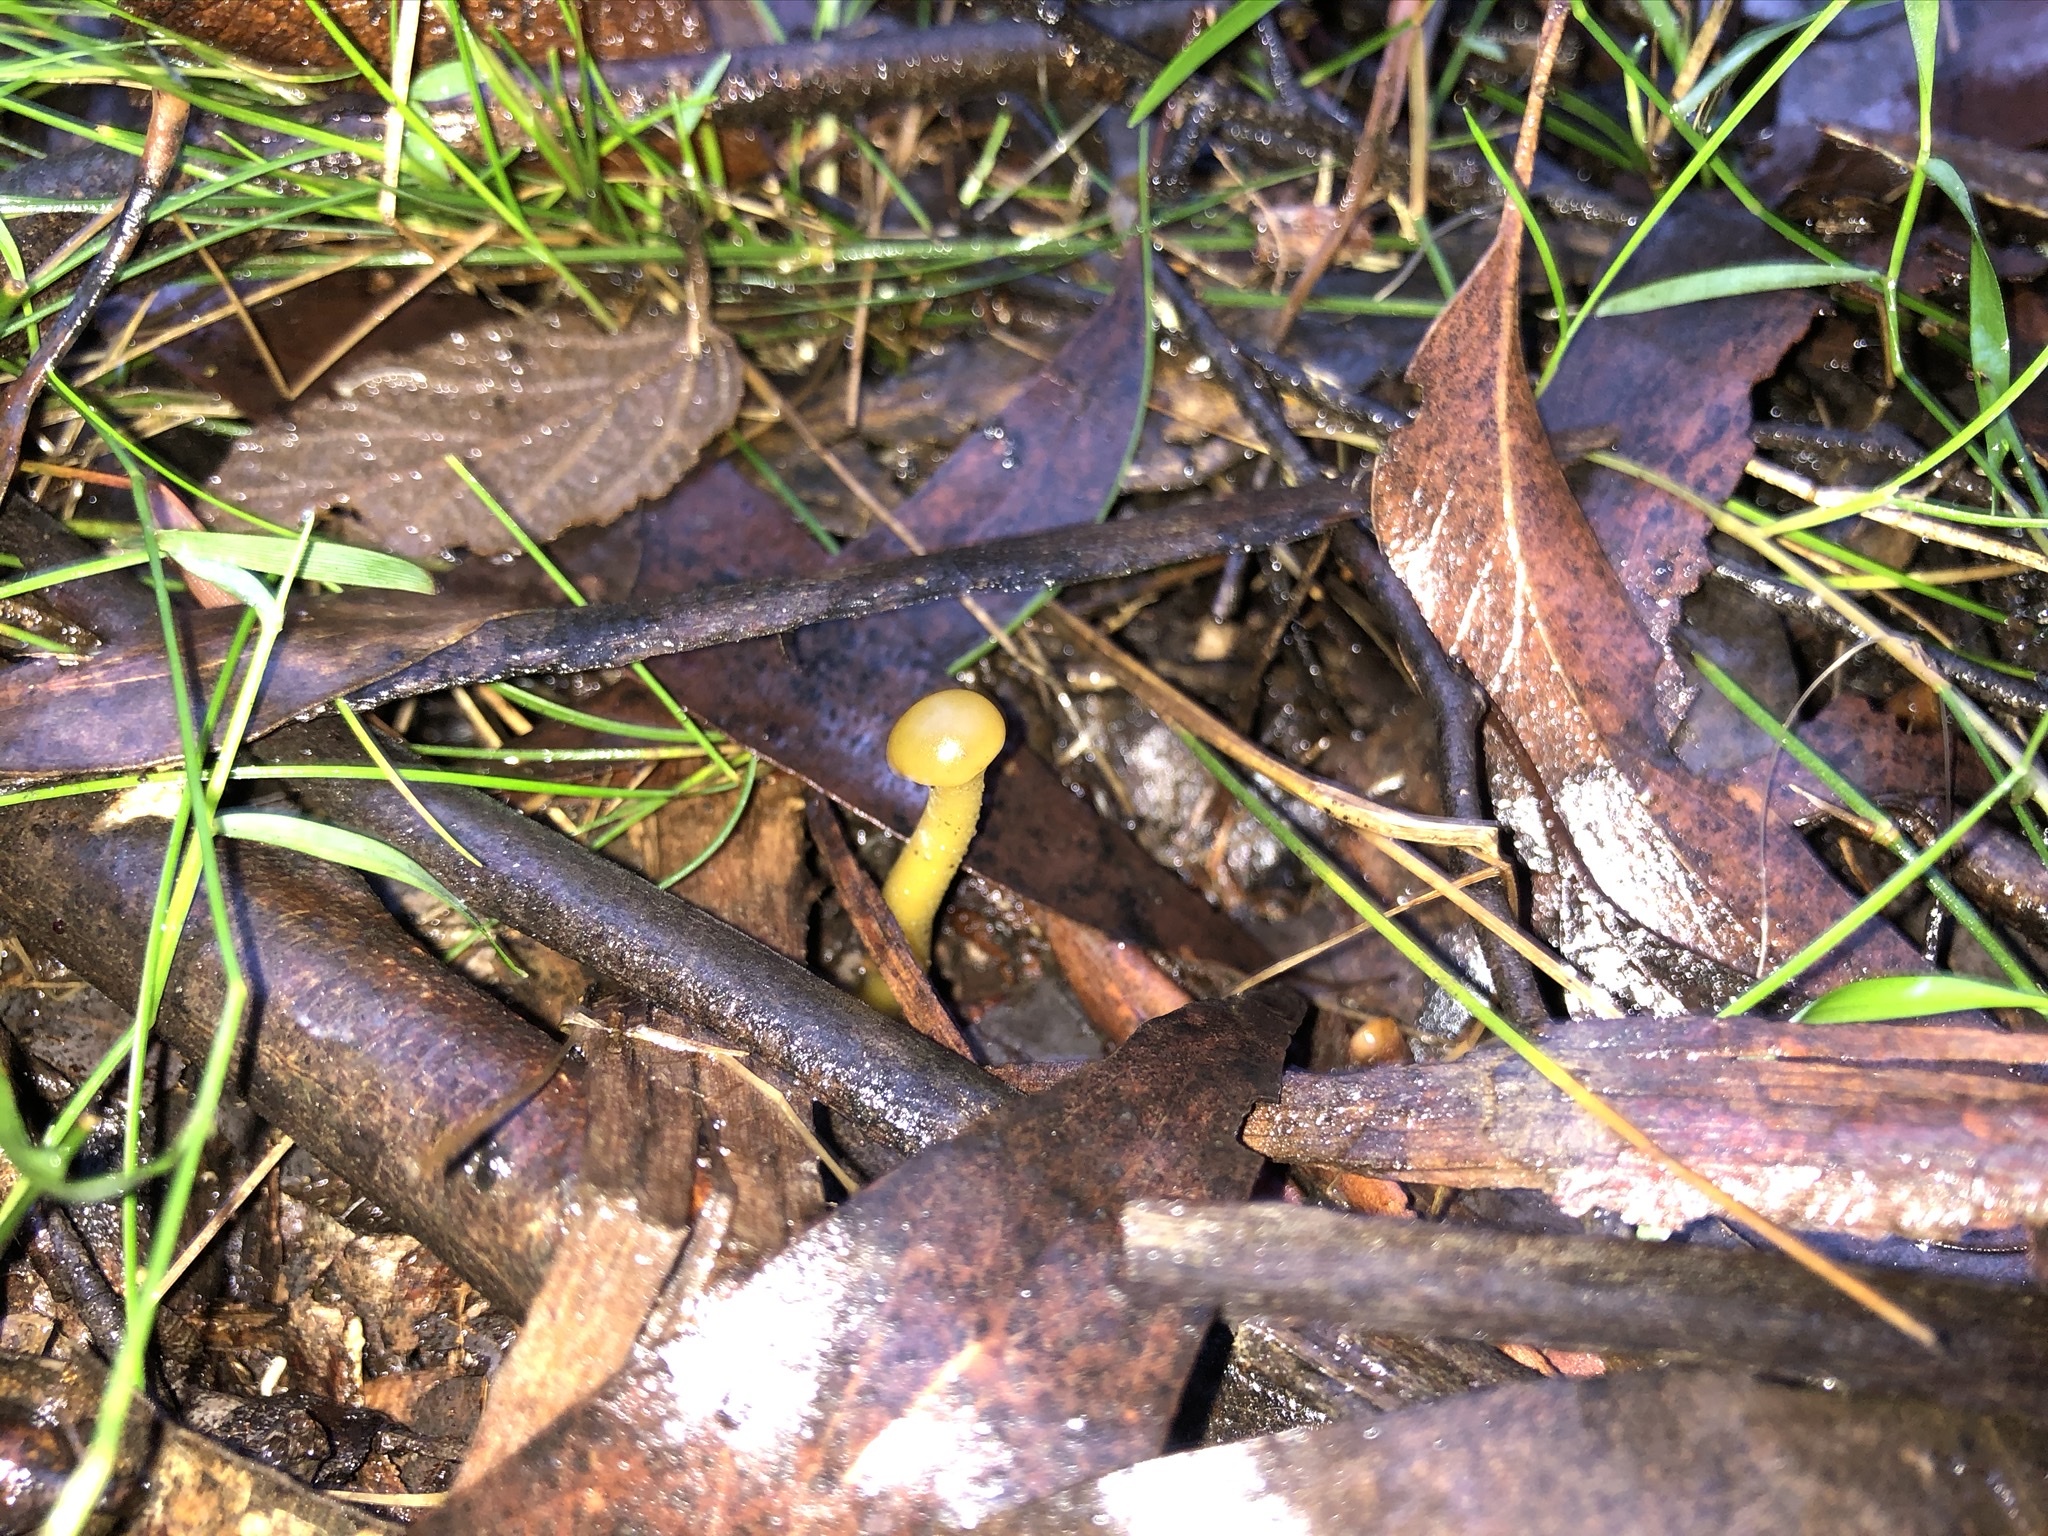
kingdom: Fungi
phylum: Ascomycota
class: Leotiomycetes
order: Leotiales
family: Leotiaceae
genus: Leotia
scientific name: Leotia lubrica
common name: Jellybaby
